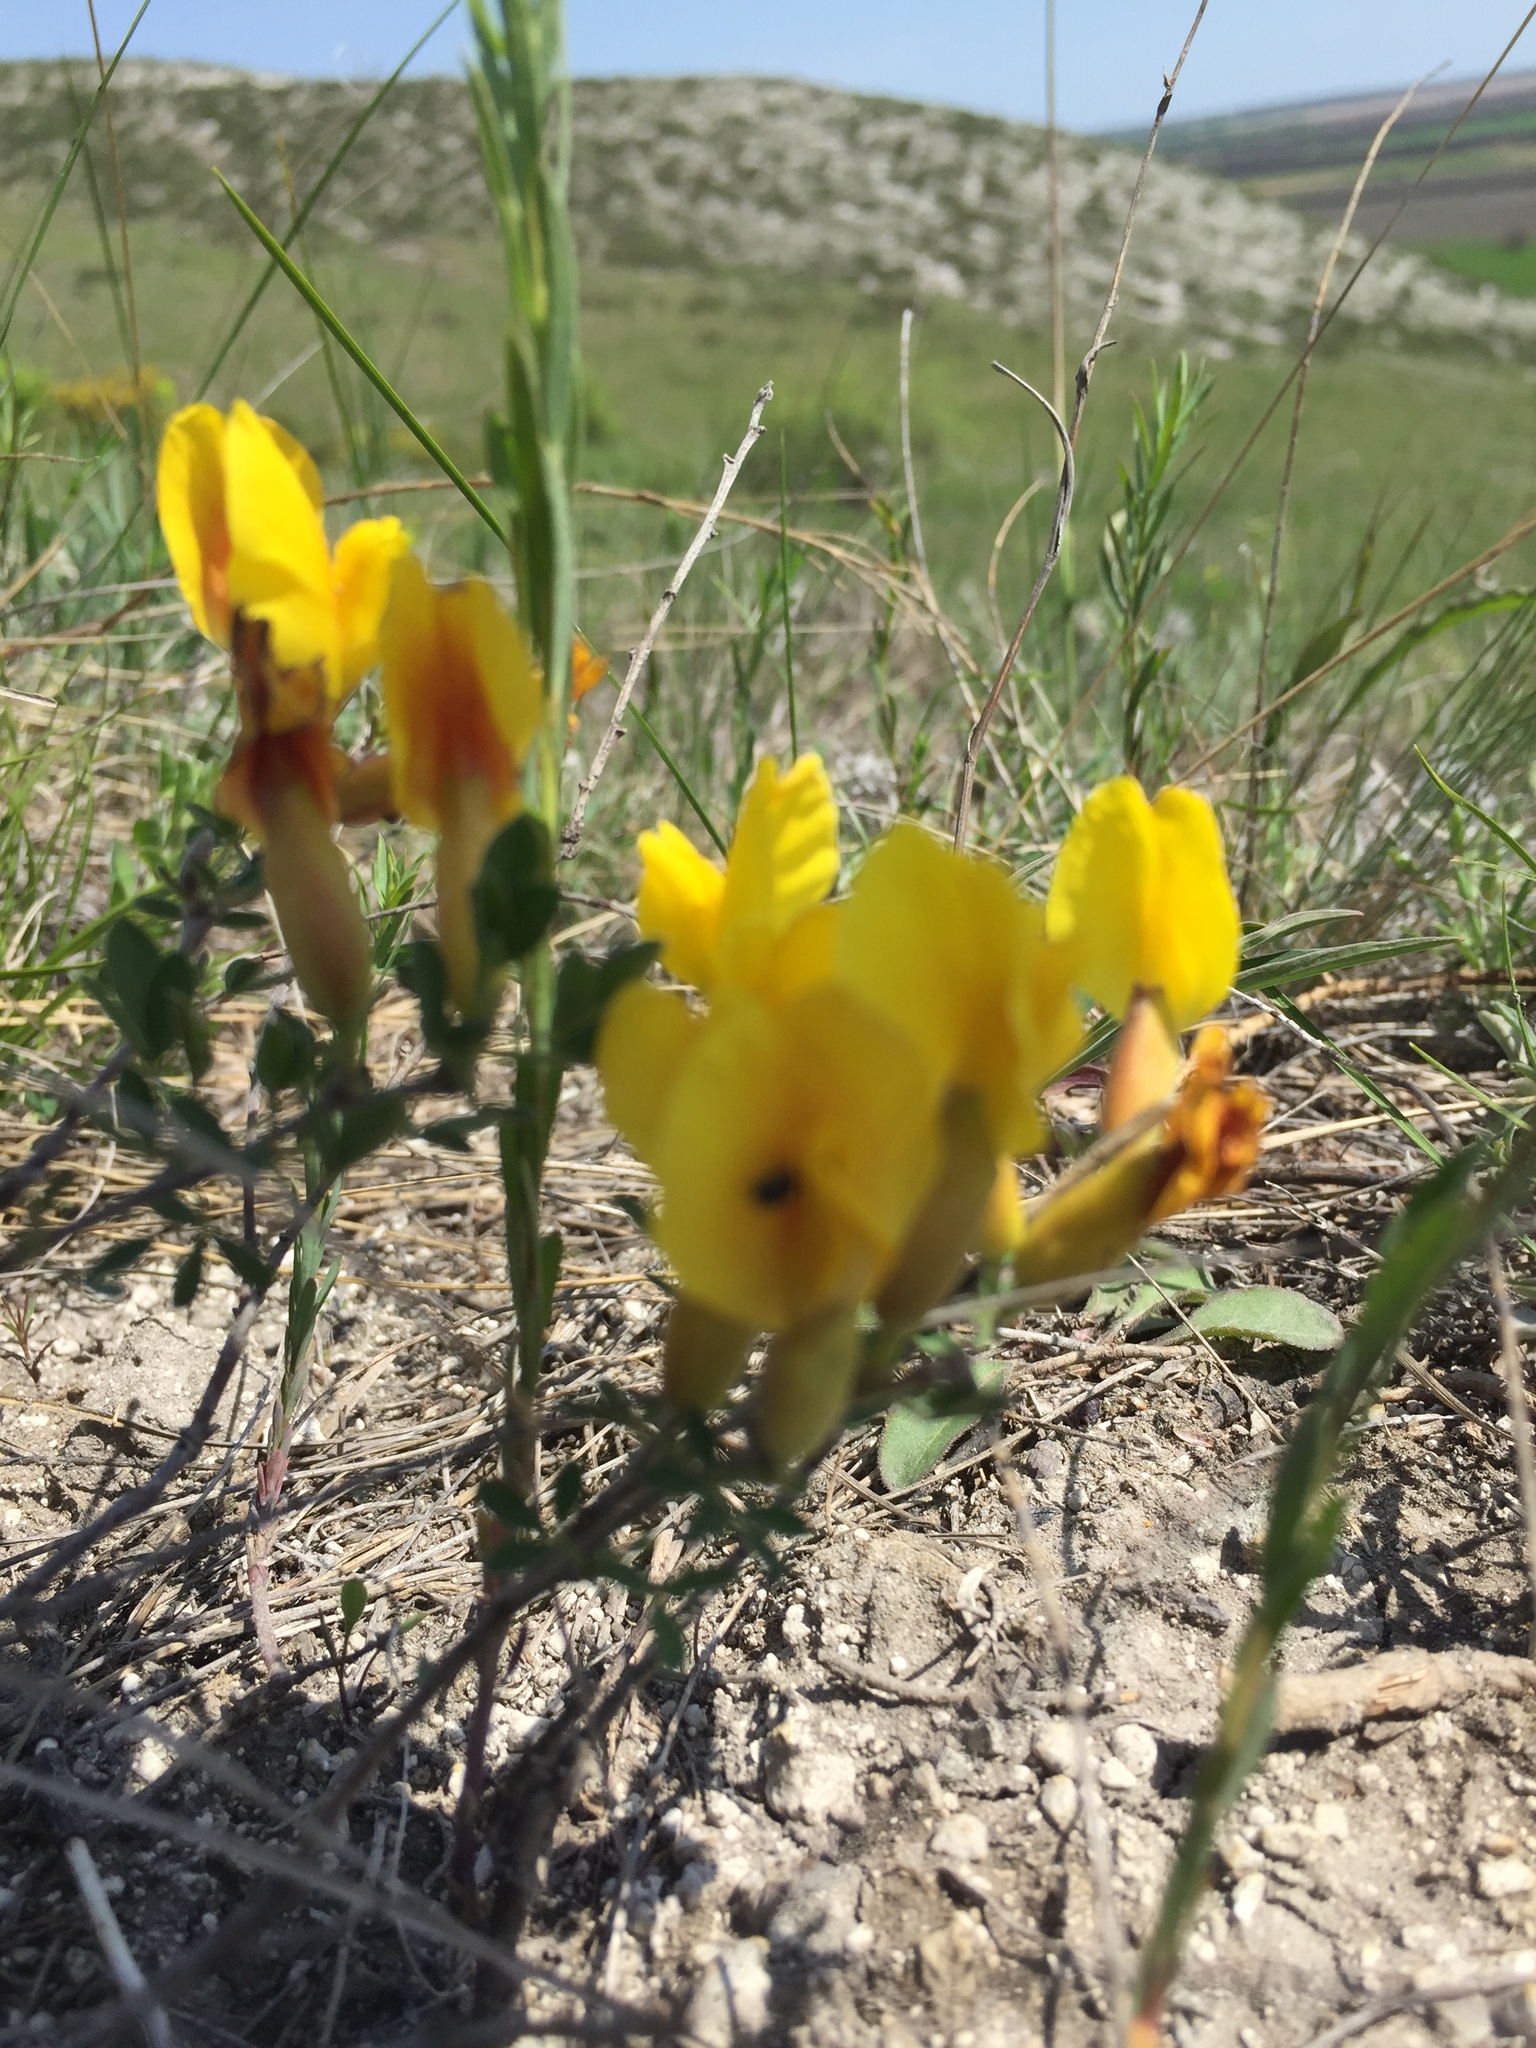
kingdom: Plantae
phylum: Tracheophyta
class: Magnoliopsida
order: Fabales
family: Fabaceae
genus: Chamaecytisus
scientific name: Chamaecytisus ruthenicus
